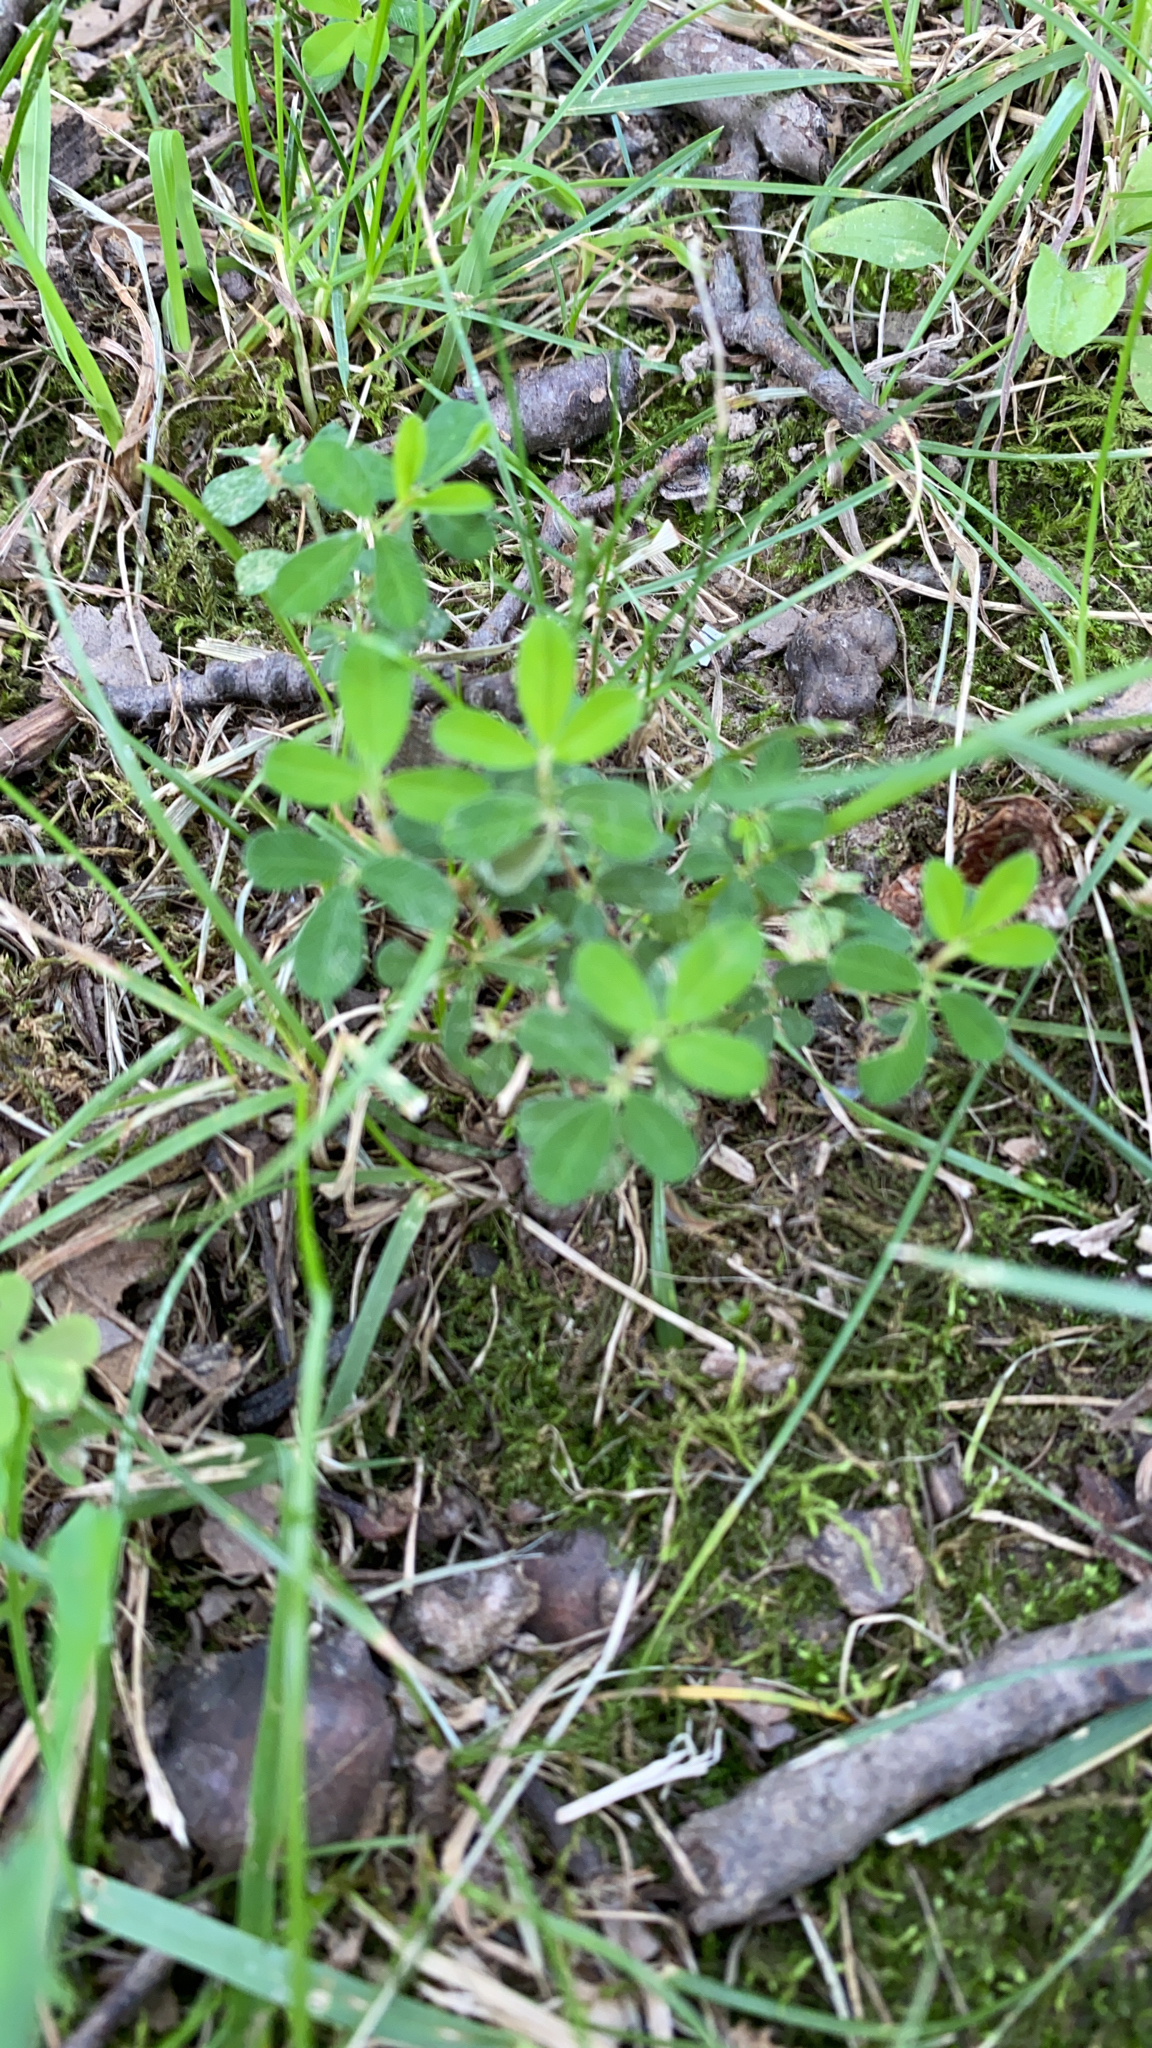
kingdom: Plantae
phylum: Tracheophyta
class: Magnoliopsida
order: Fabales
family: Fabaceae
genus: Kummerowia
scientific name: Kummerowia striata
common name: Japanese clover
